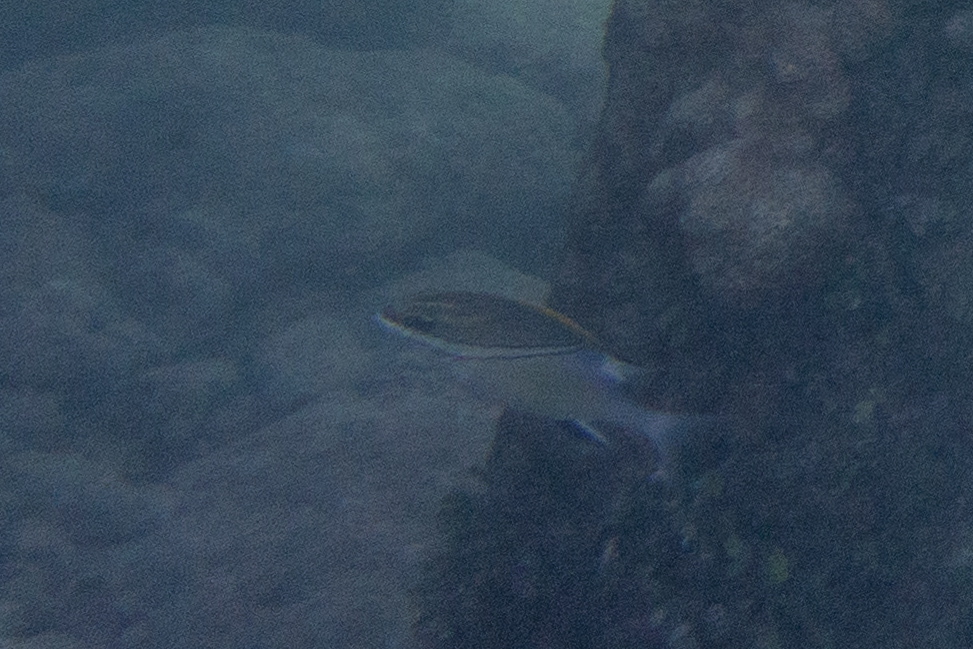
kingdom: Animalia
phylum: Chordata
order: Perciformes
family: Nemipteridae
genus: Scolopsis
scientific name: Scolopsis bilineata
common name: Two-lined monocle bream
